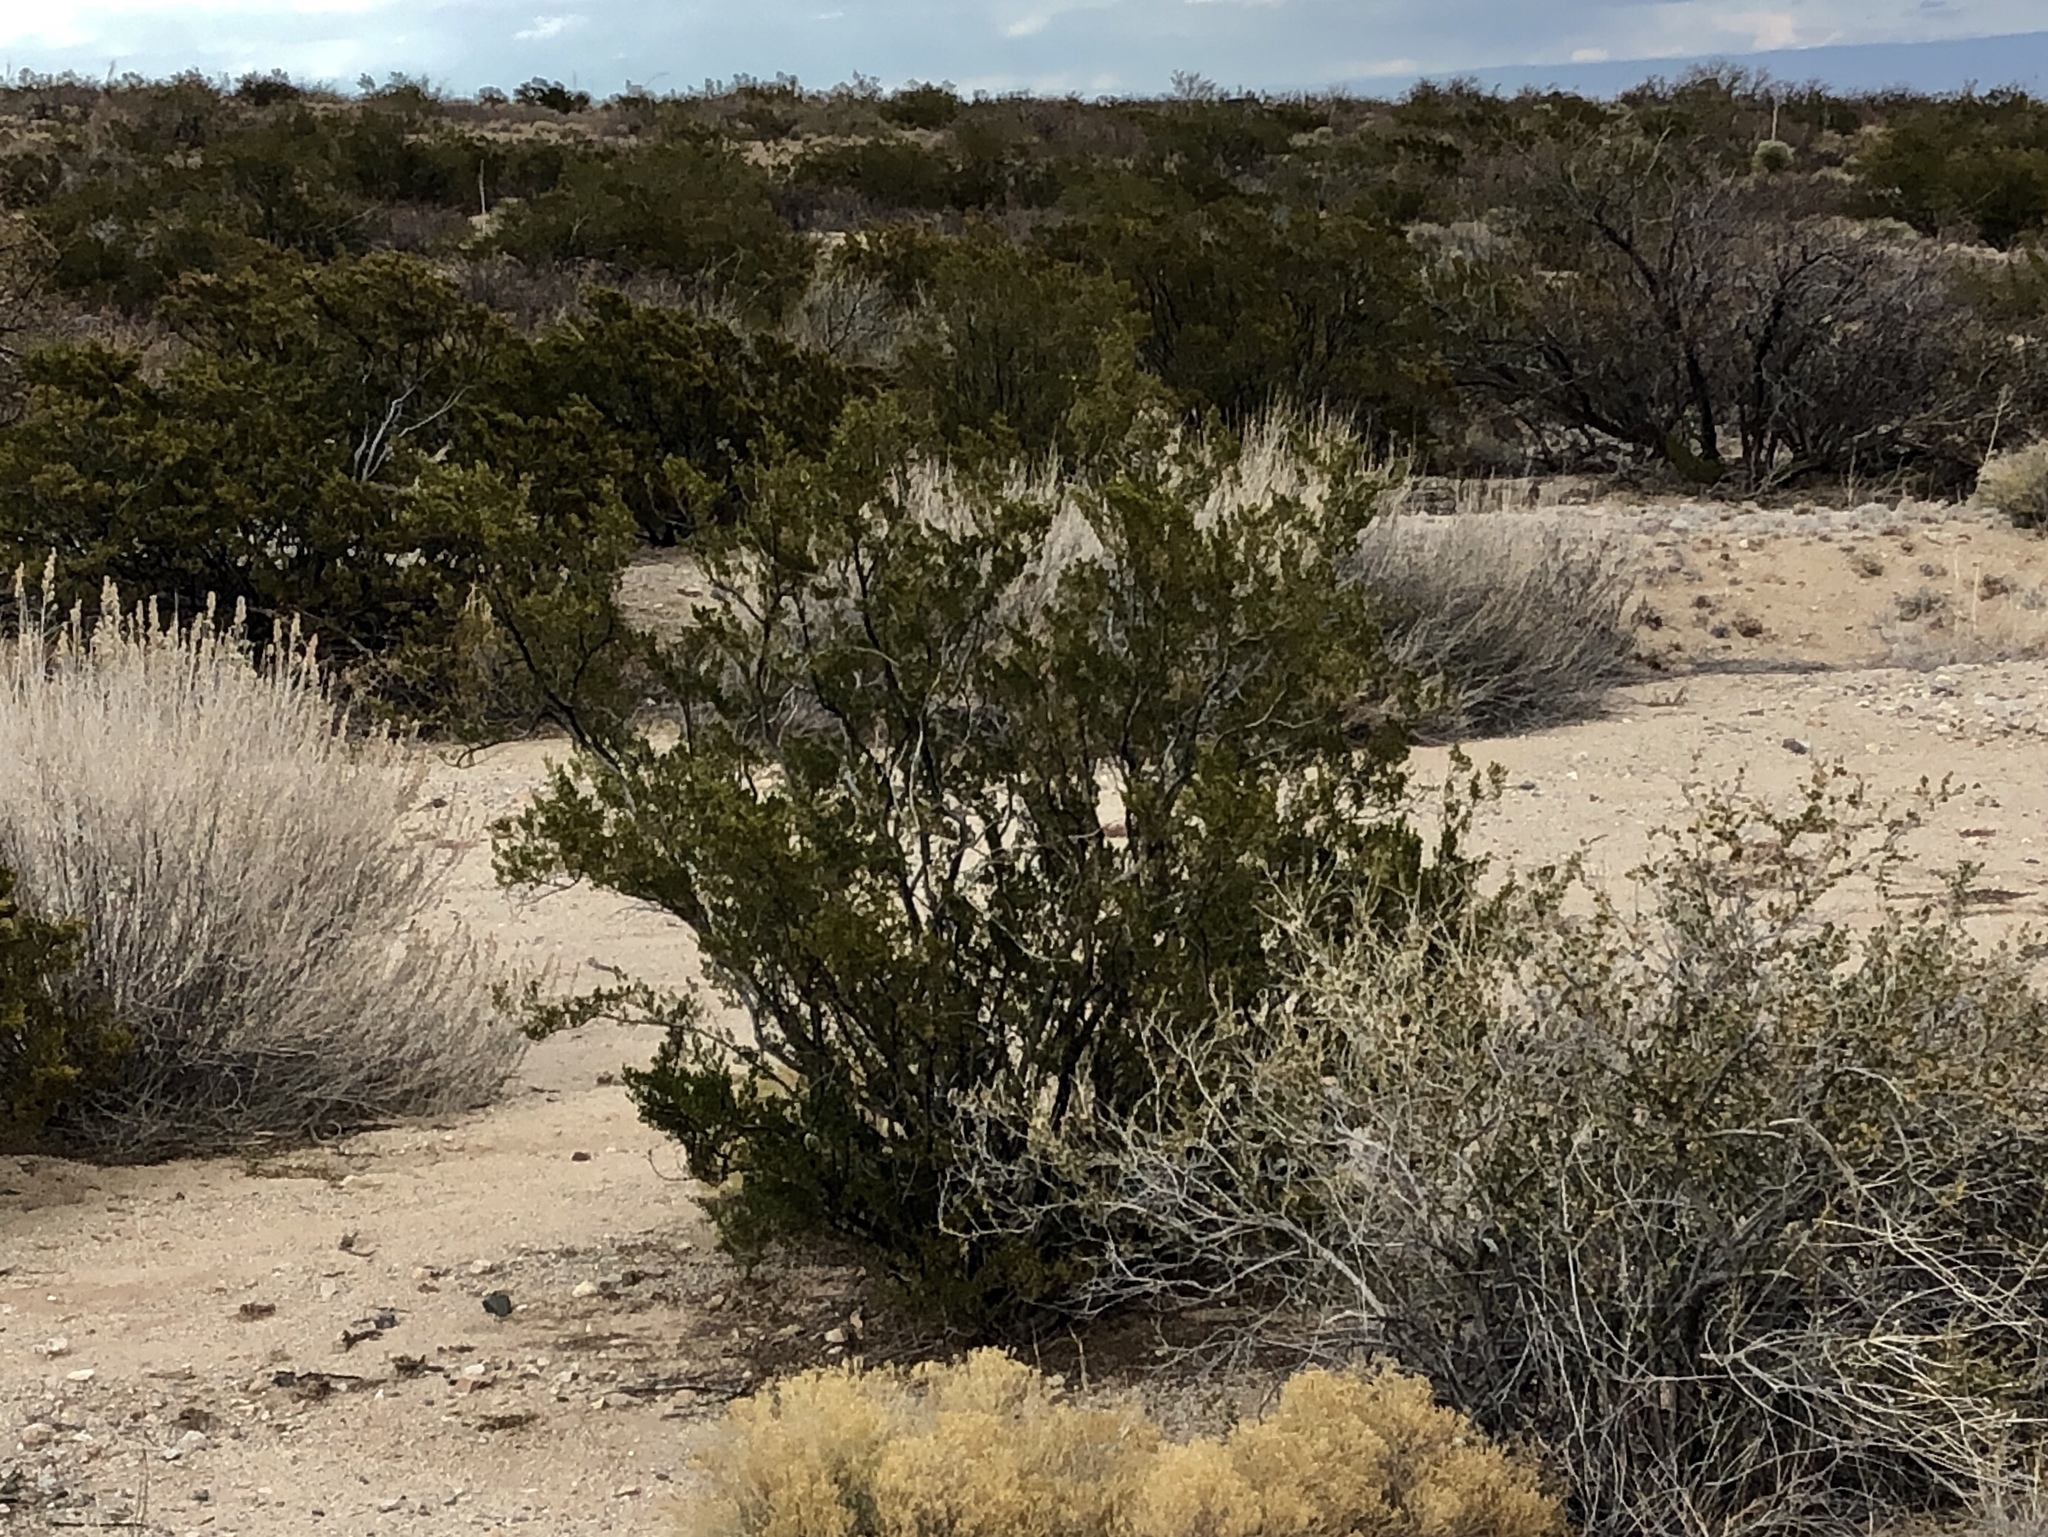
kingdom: Plantae
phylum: Tracheophyta
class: Magnoliopsida
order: Zygophyllales
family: Zygophyllaceae
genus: Larrea
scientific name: Larrea tridentata
